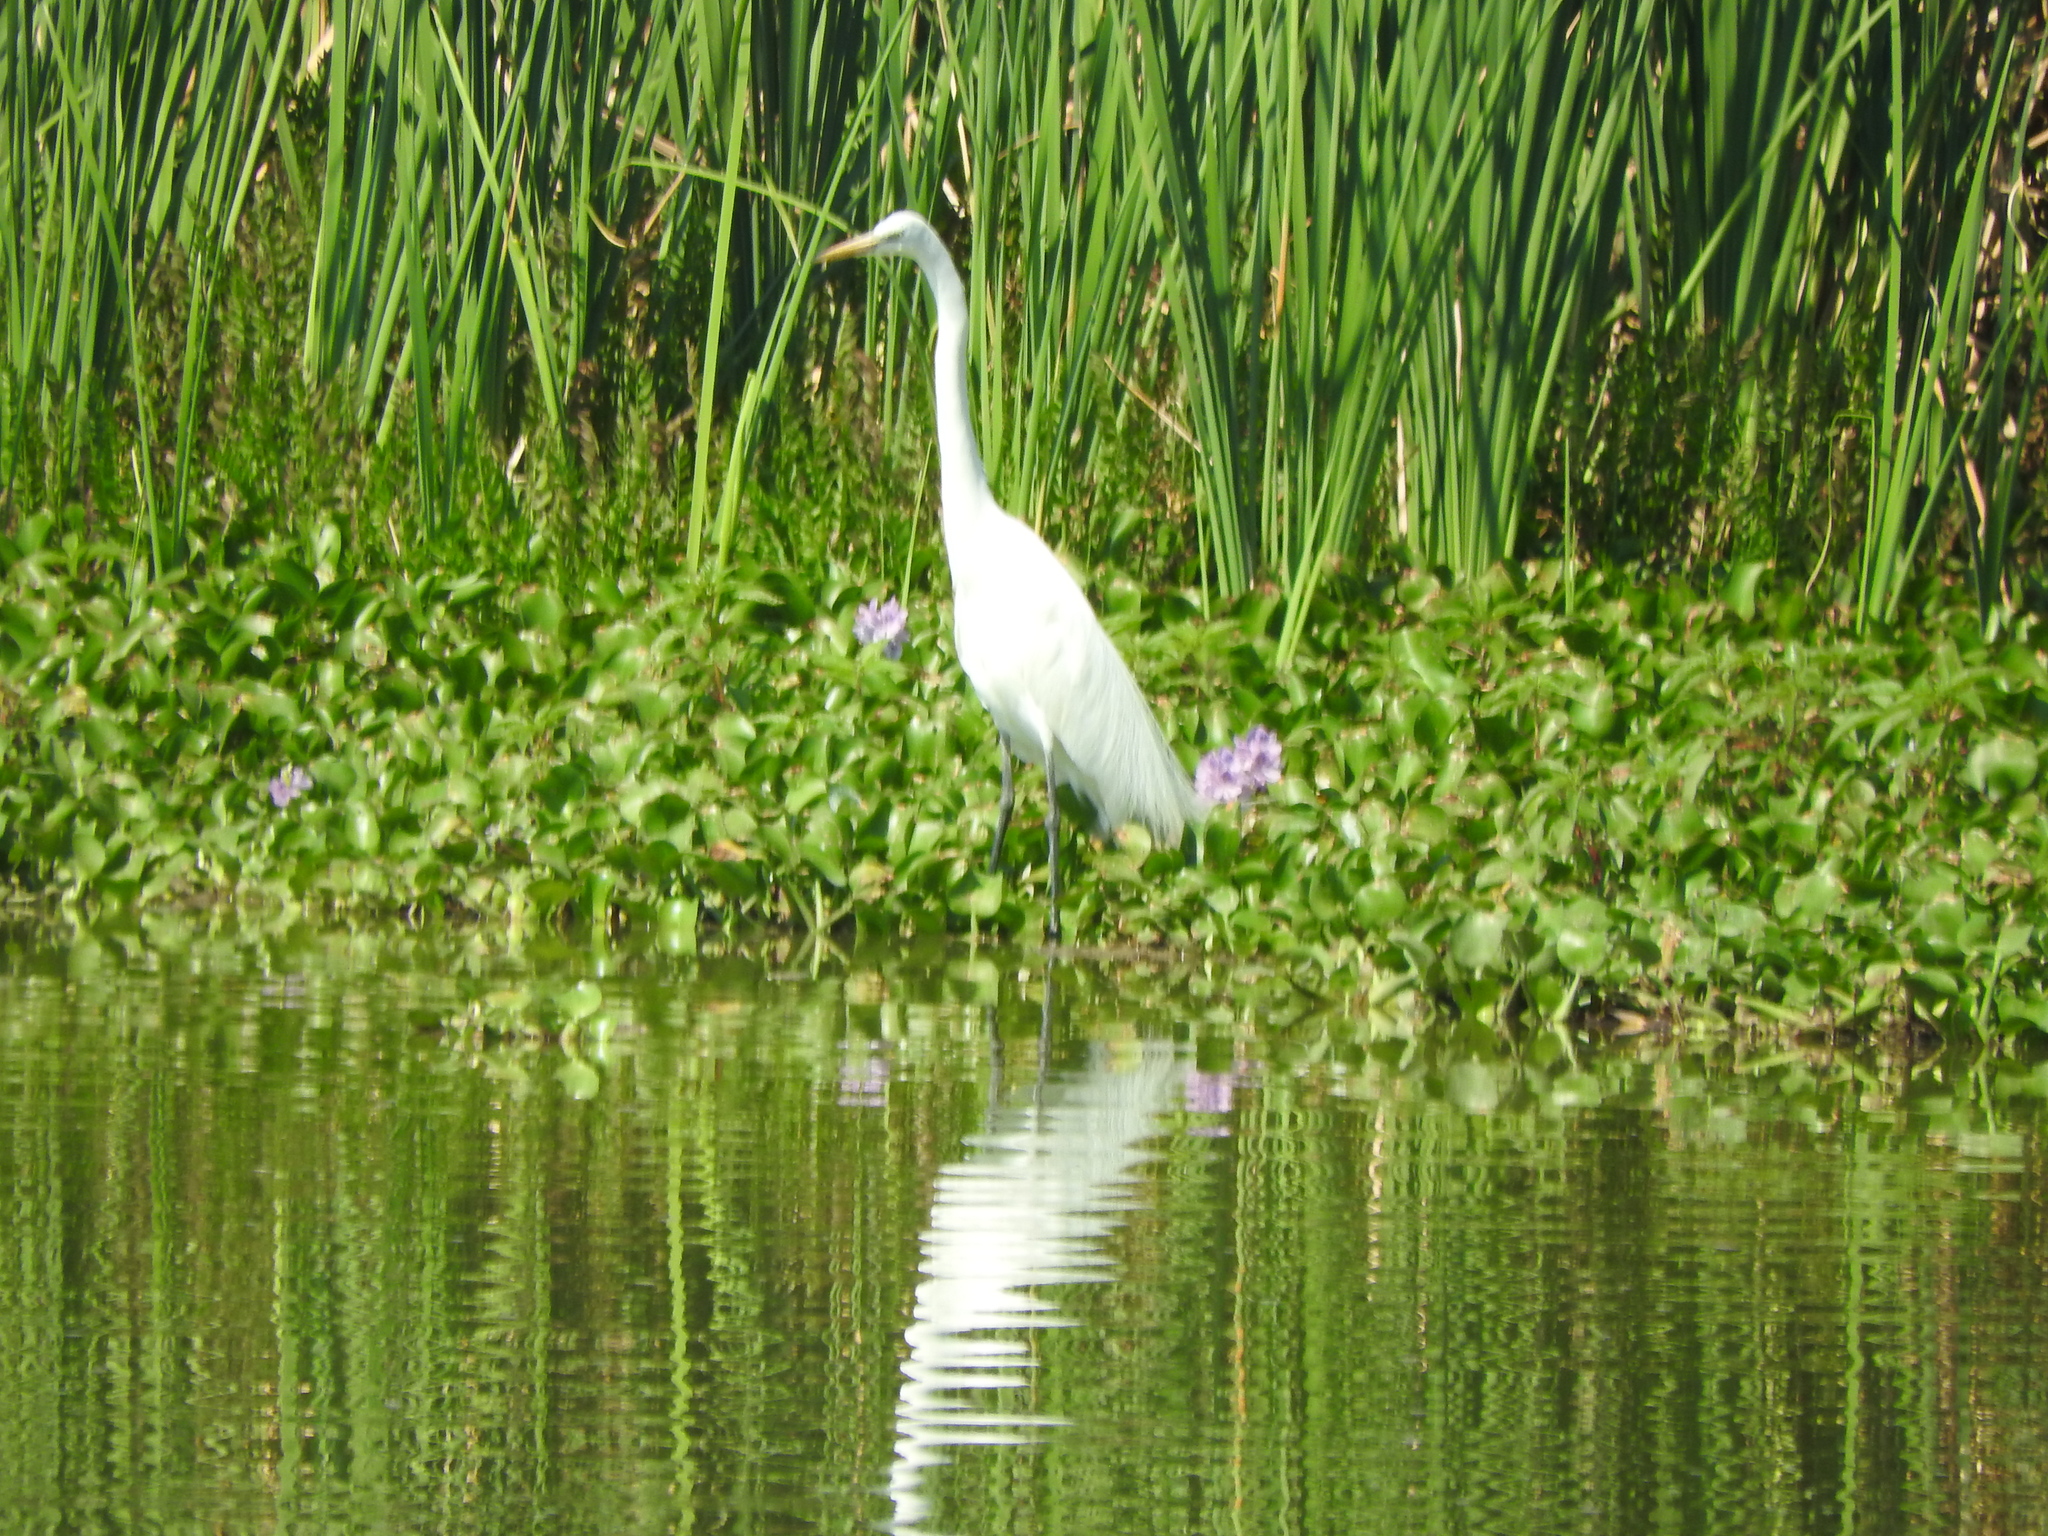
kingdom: Animalia
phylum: Chordata
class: Aves
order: Pelecaniformes
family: Ardeidae
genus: Ardea
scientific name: Ardea alba
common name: Great egret
